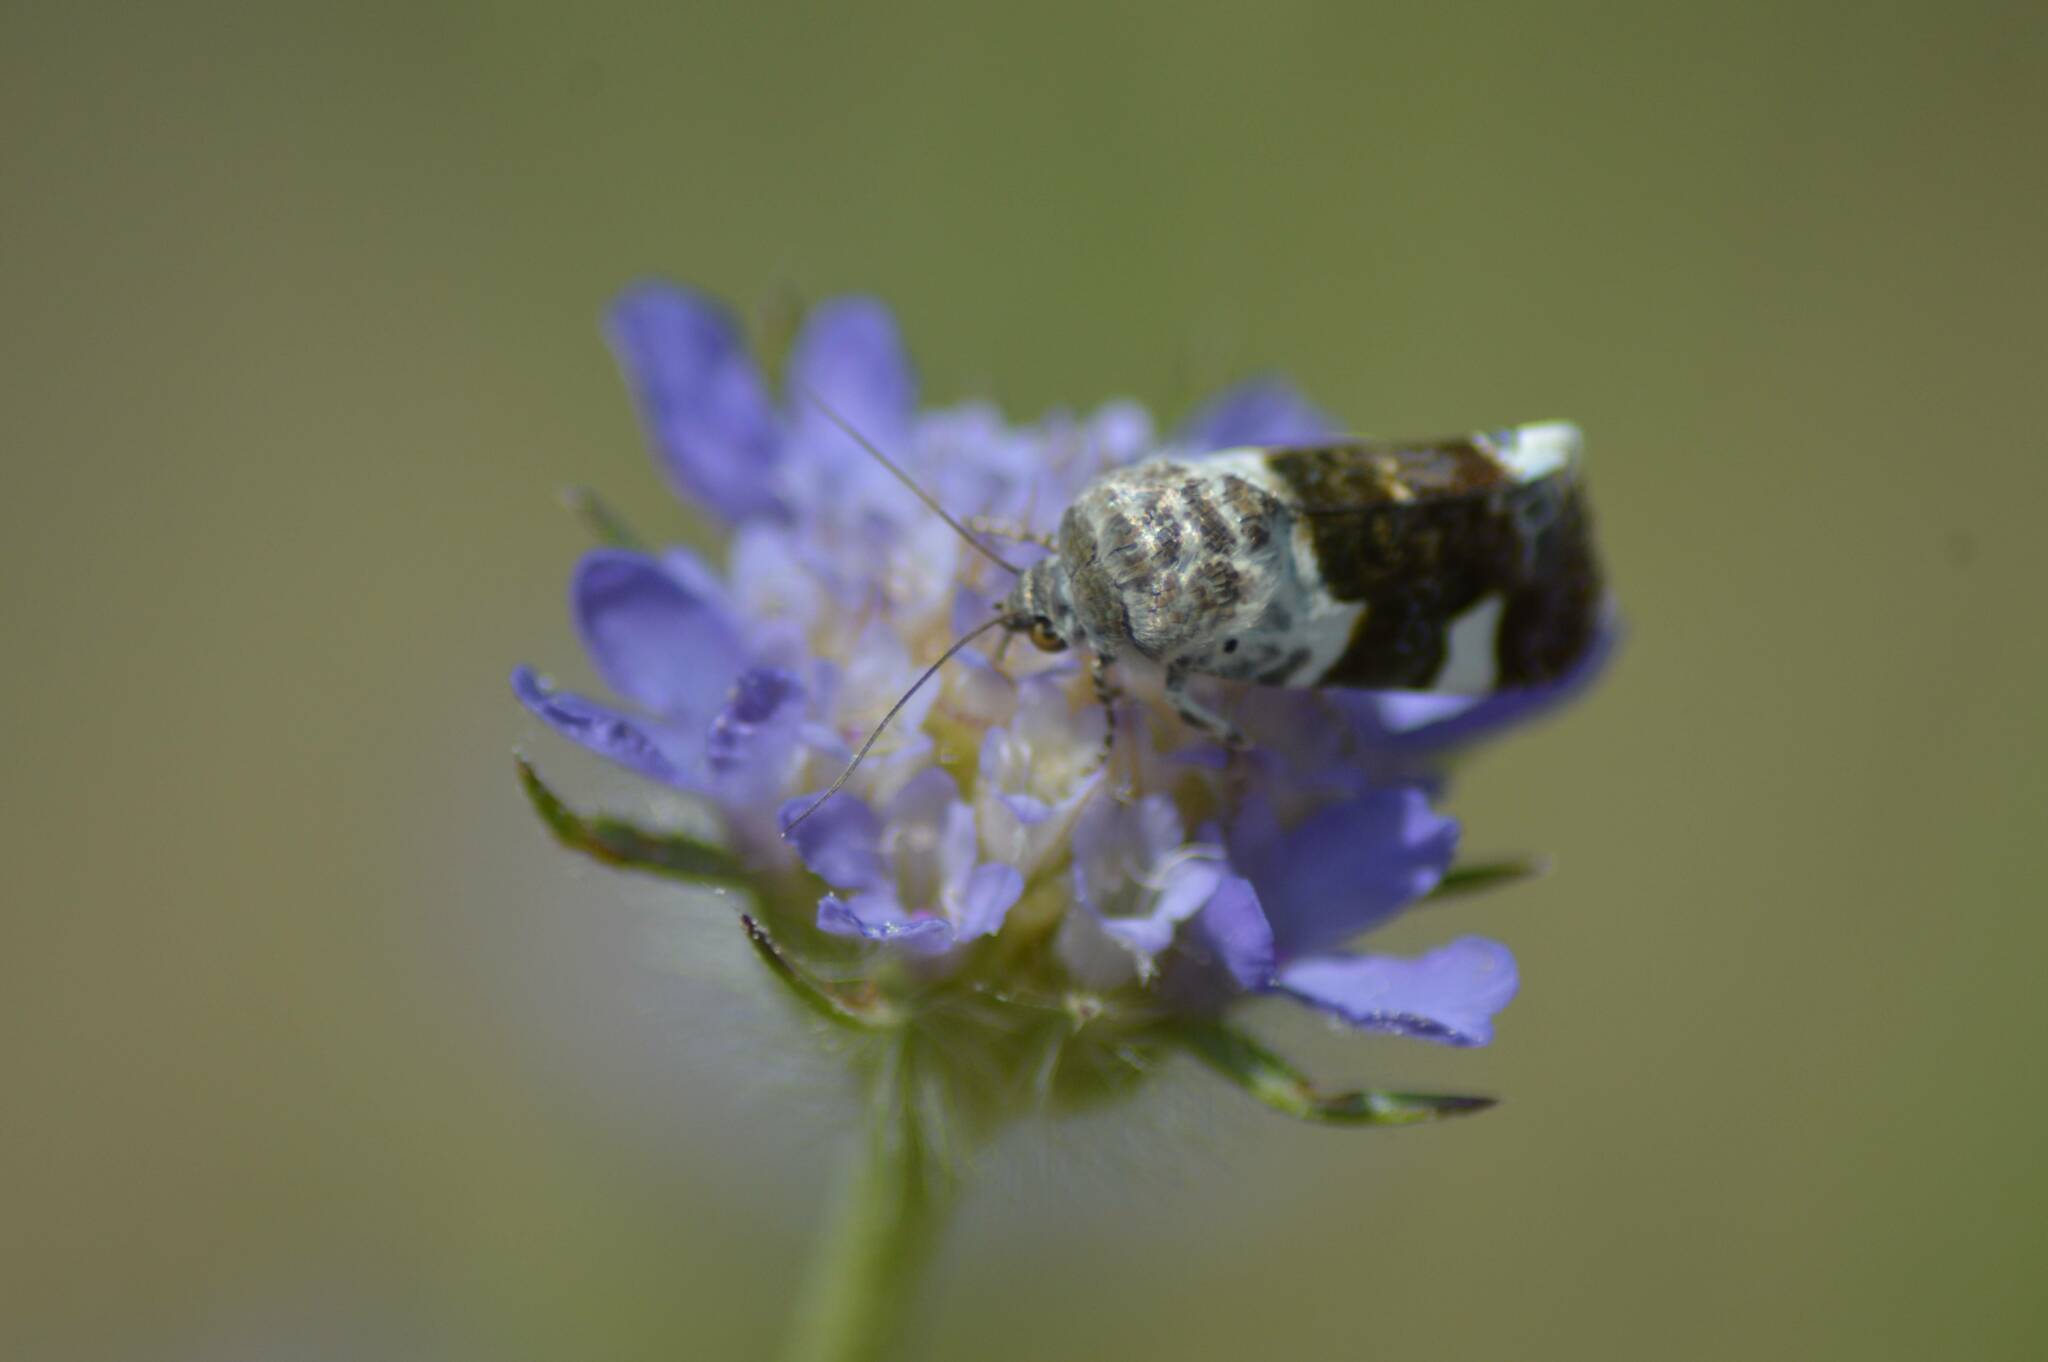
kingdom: Animalia
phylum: Arthropoda
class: Insecta
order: Lepidoptera
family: Noctuidae
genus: Acontia
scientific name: Acontia lucida
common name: Pale shoulder
